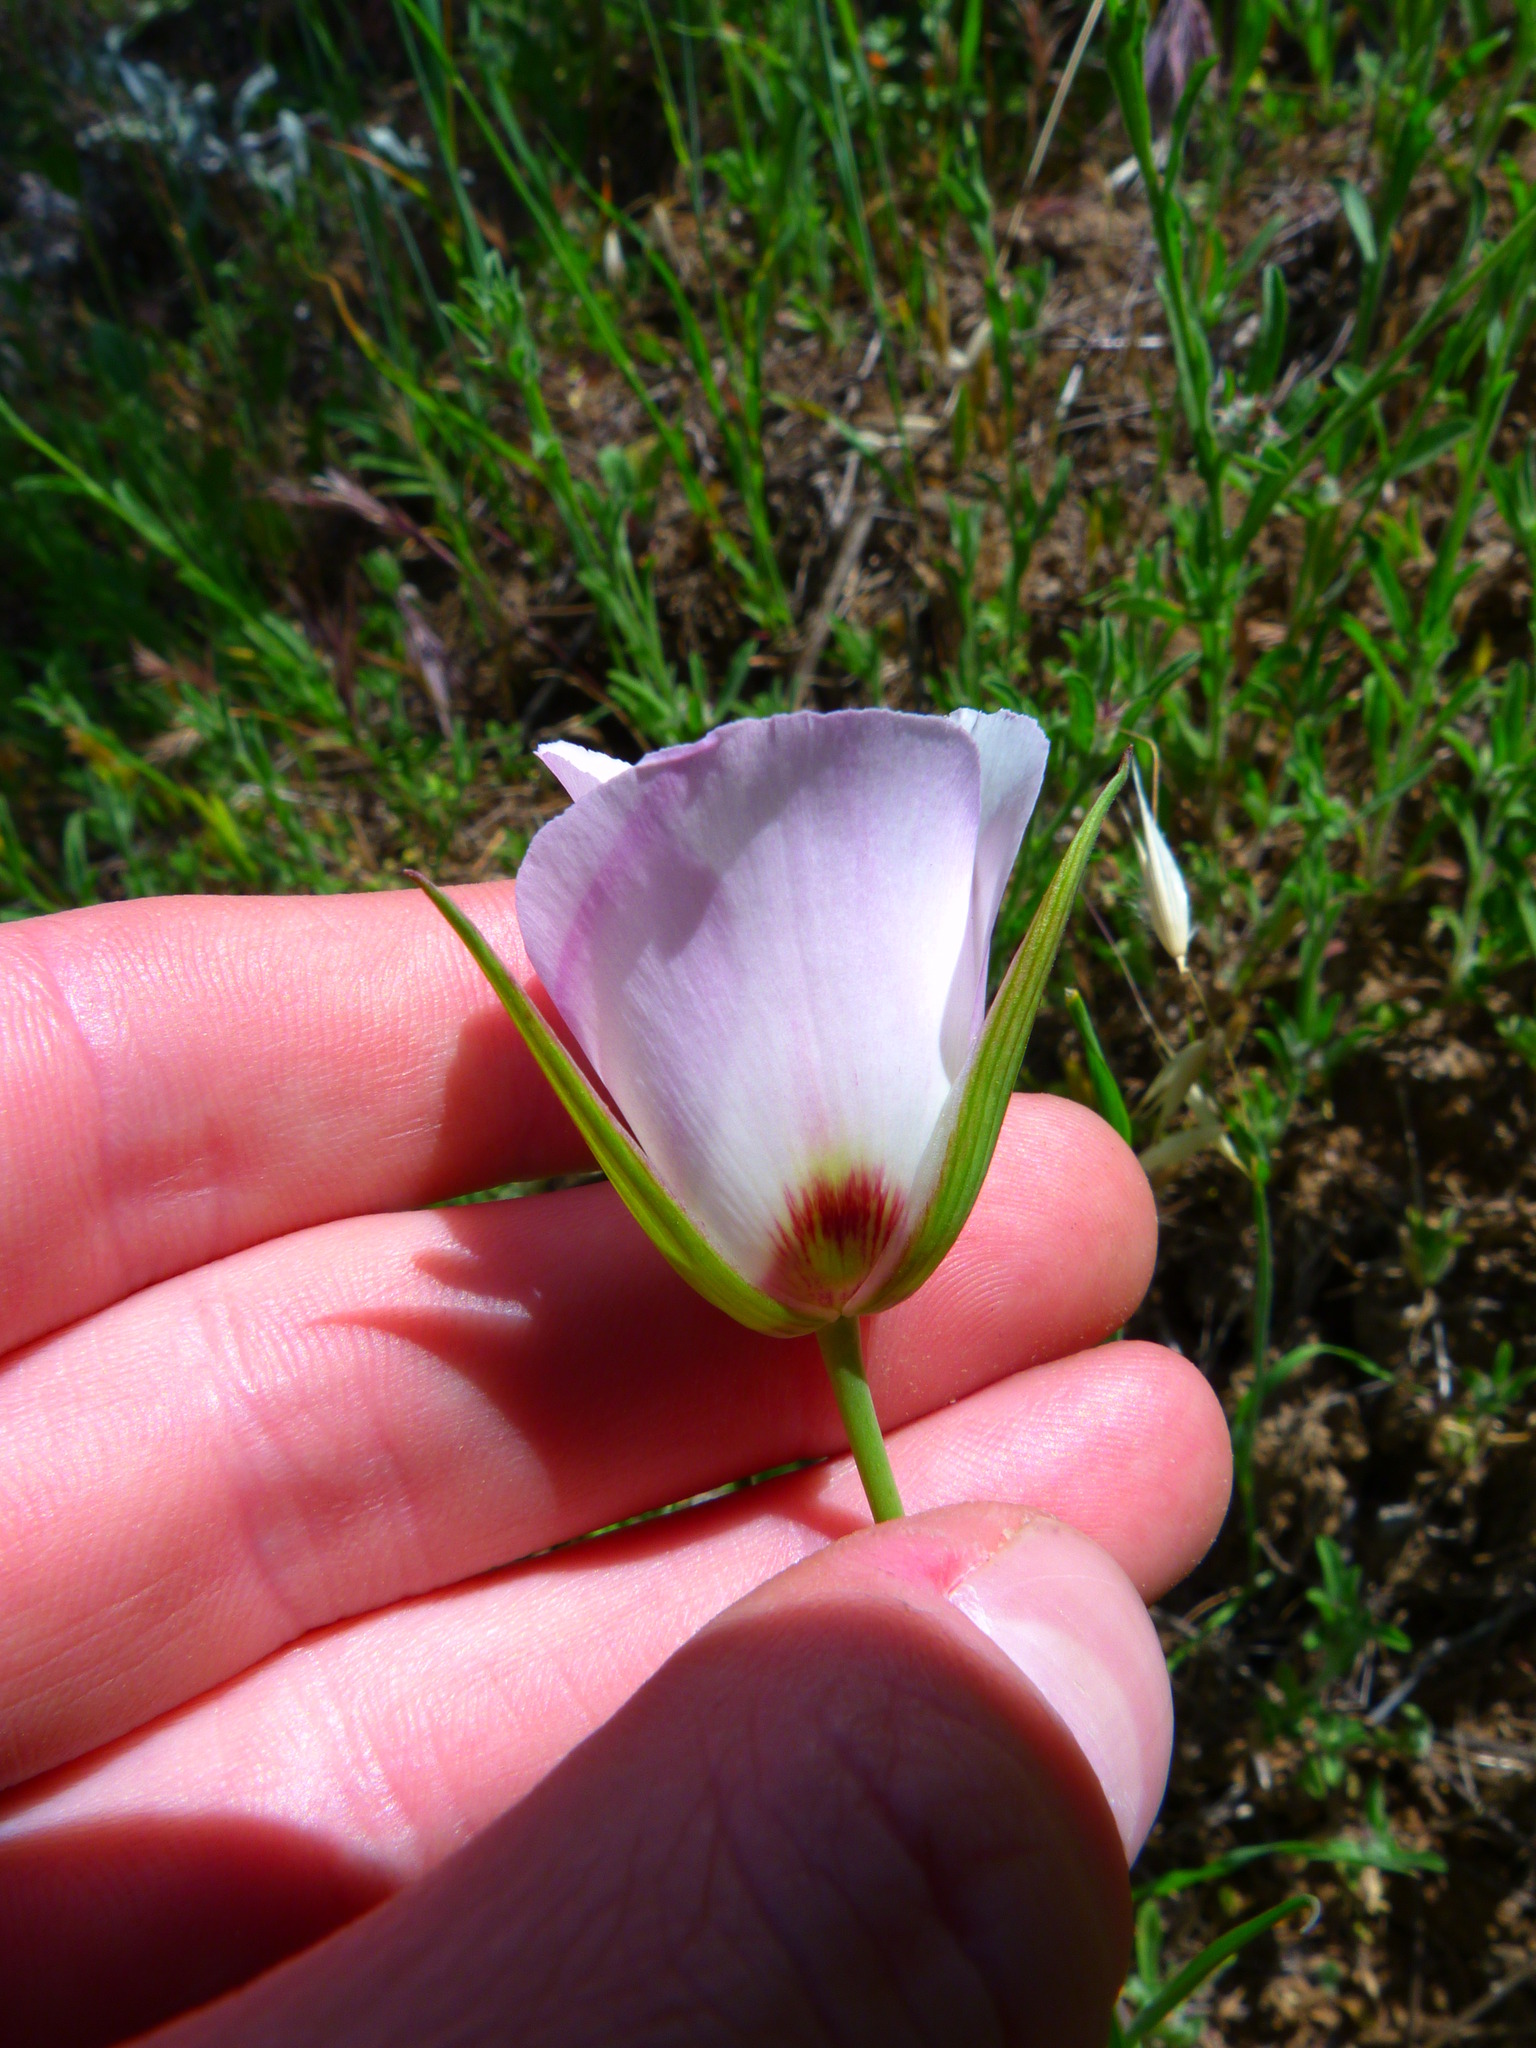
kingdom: Plantae
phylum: Tracheophyta
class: Liliopsida
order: Liliales
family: Liliaceae
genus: Calochortus
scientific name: Calochortus catalinae
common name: Catalina mariposa-lily
